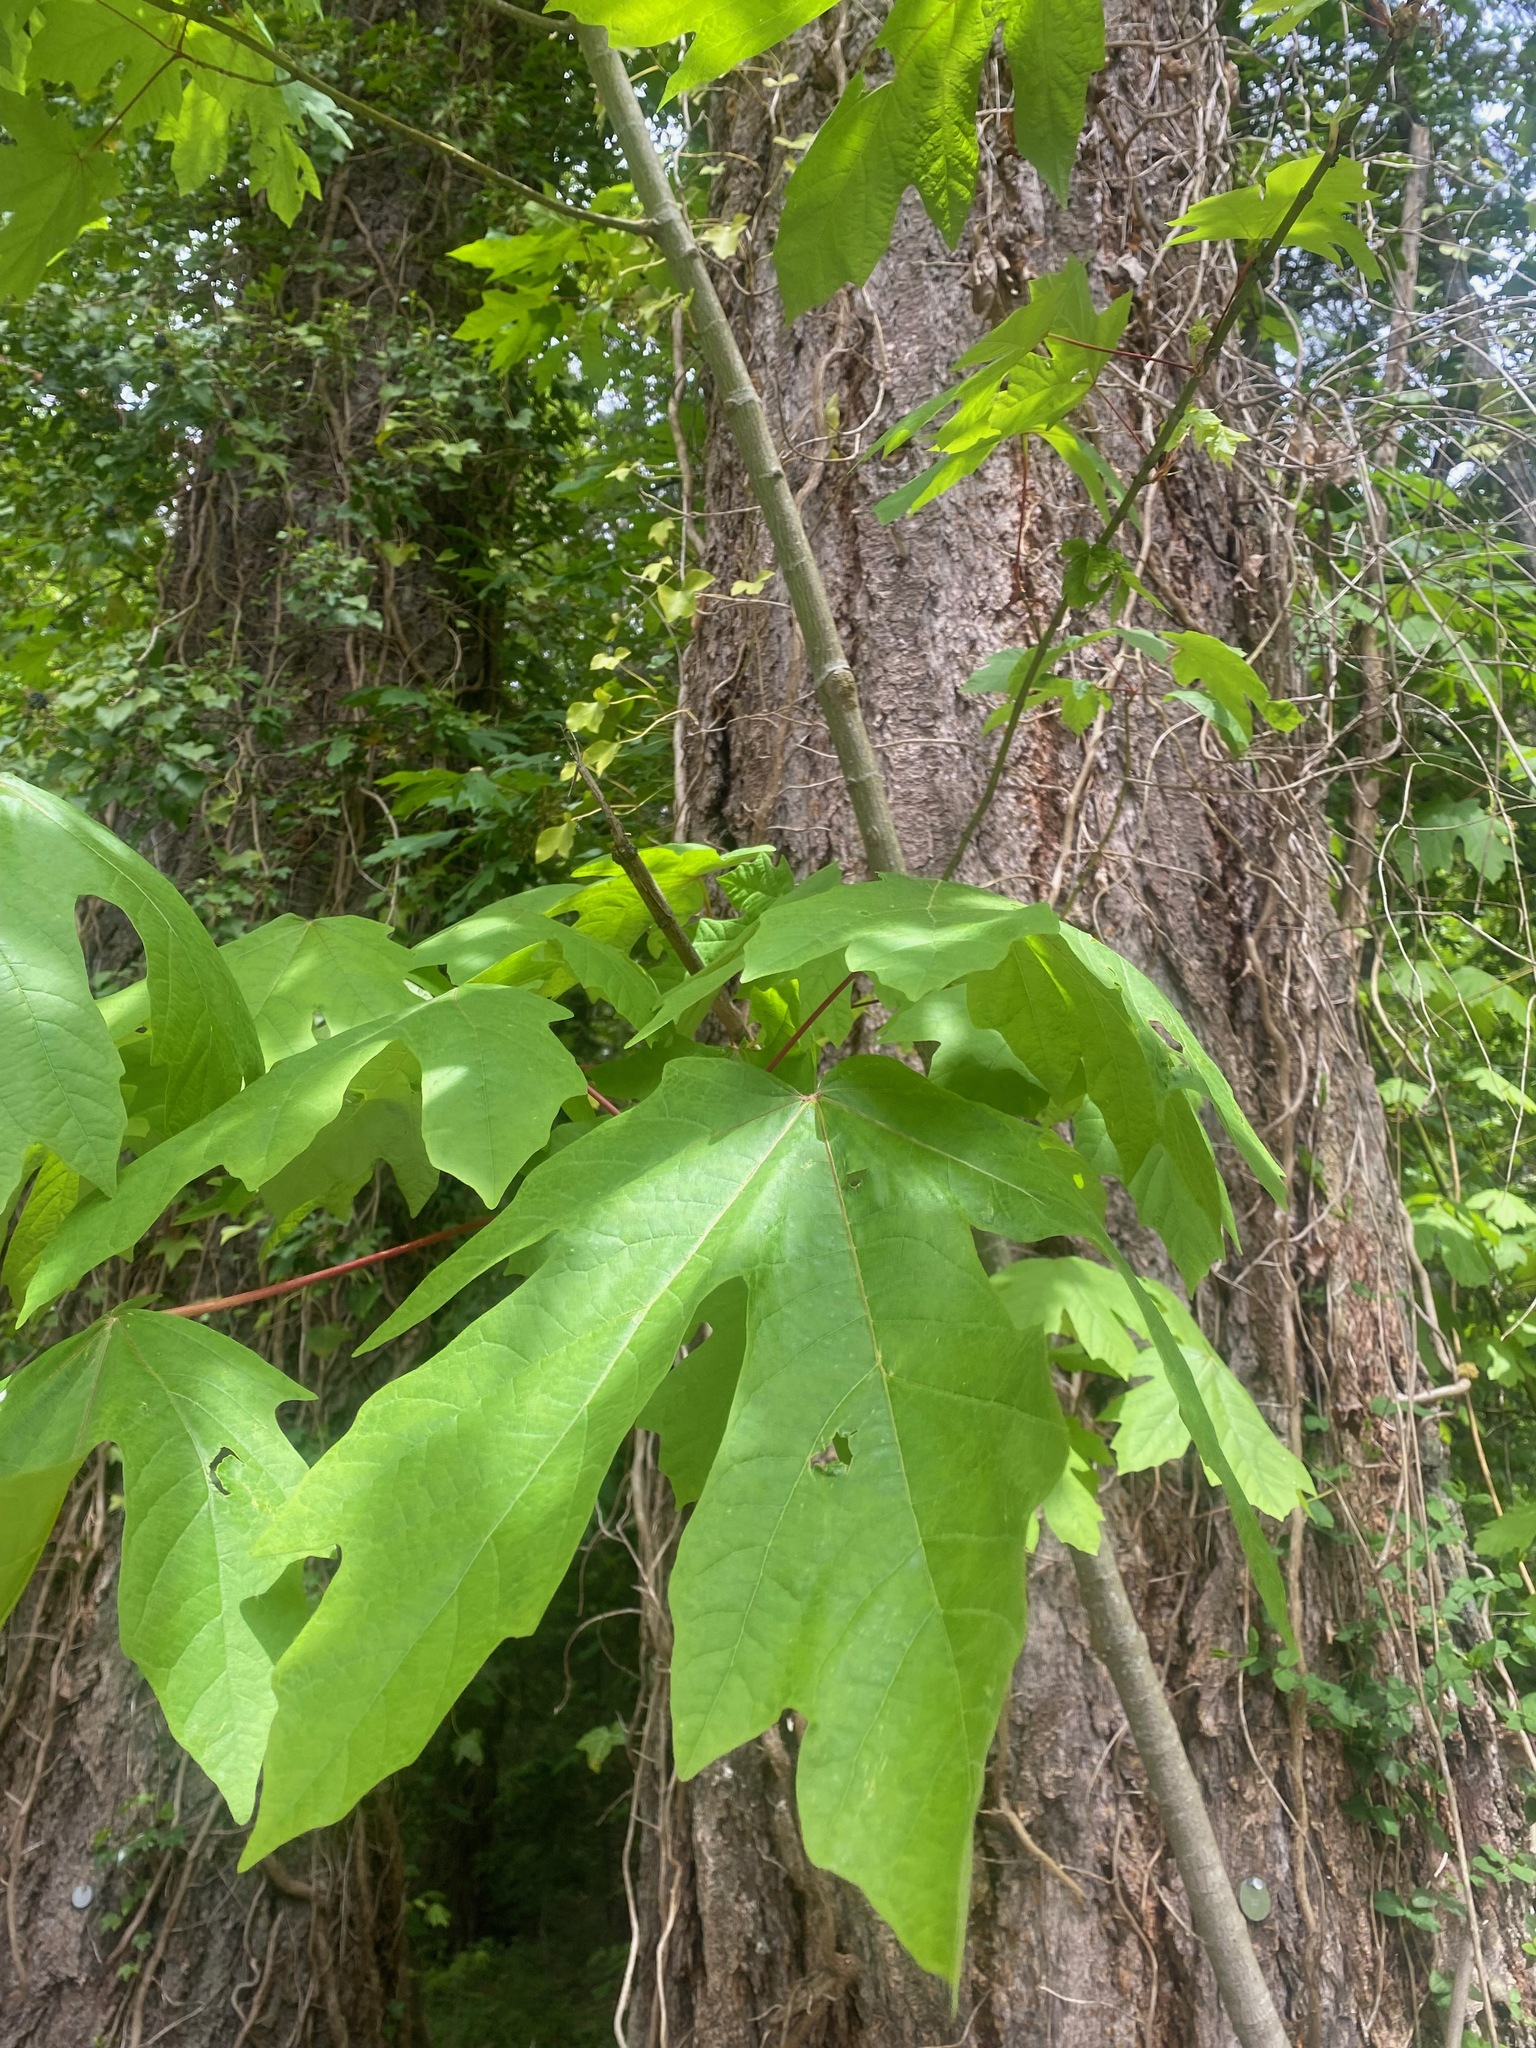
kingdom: Plantae
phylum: Tracheophyta
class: Magnoliopsida
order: Sapindales
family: Sapindaceae
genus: Acer
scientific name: Acer macrophyllum
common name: Oregon maple
